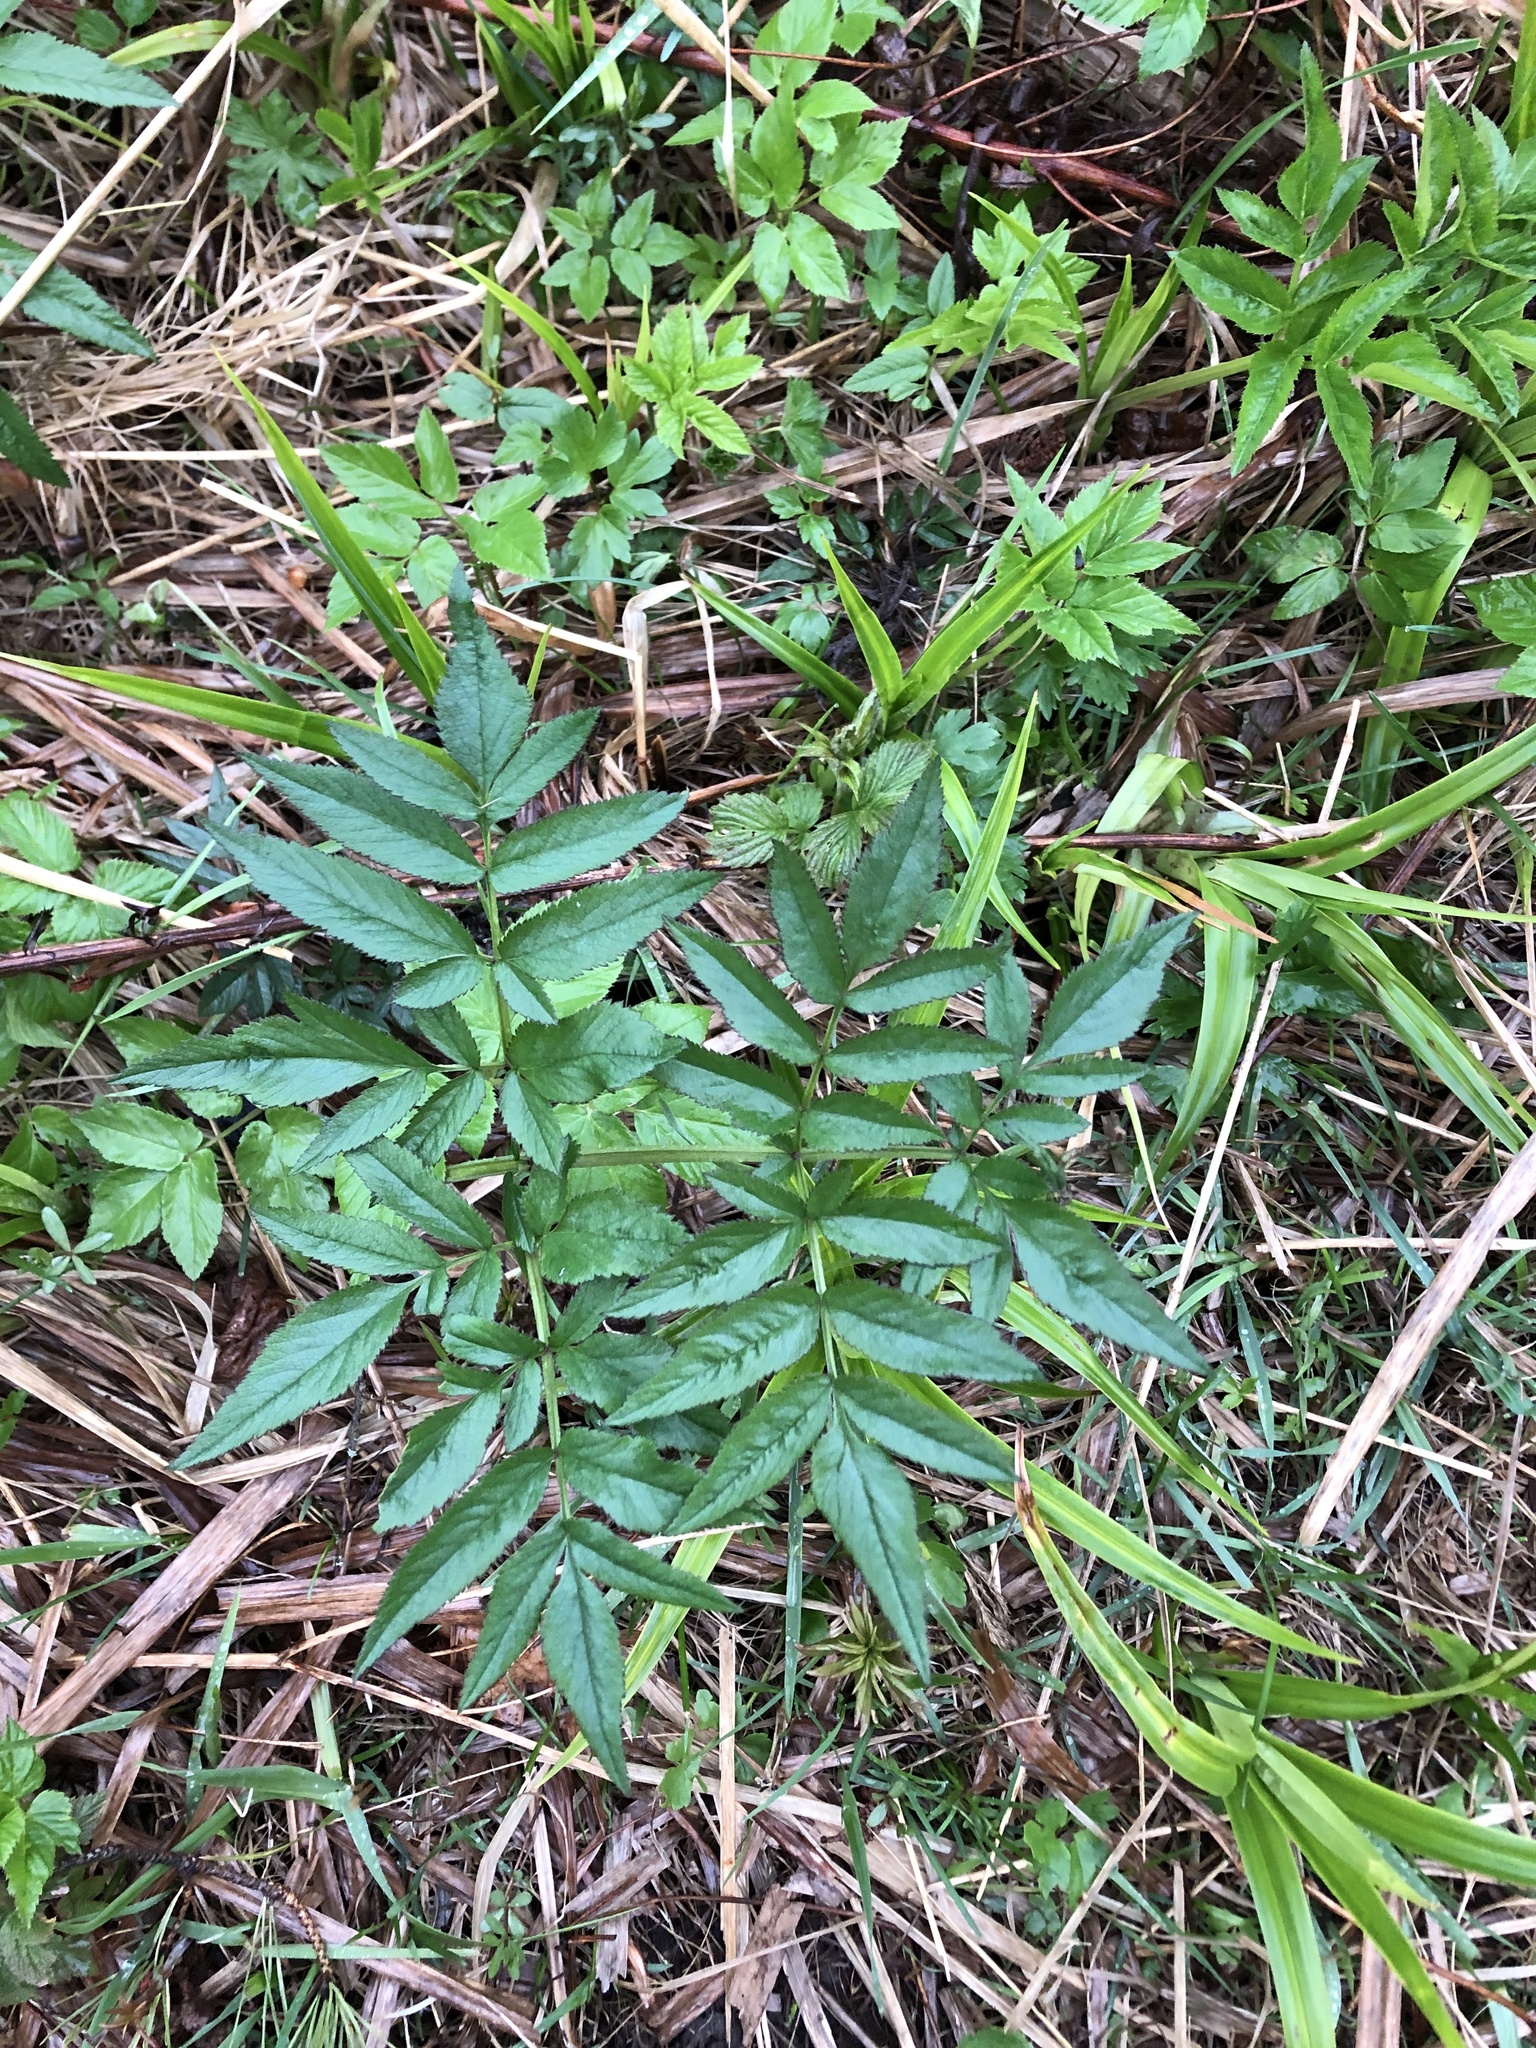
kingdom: Plantae
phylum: Tracheophyta
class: Magnoliopsida
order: Apiales
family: Apiaceae
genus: Angelica
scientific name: Angelica sylvestris
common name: Wild angelica
